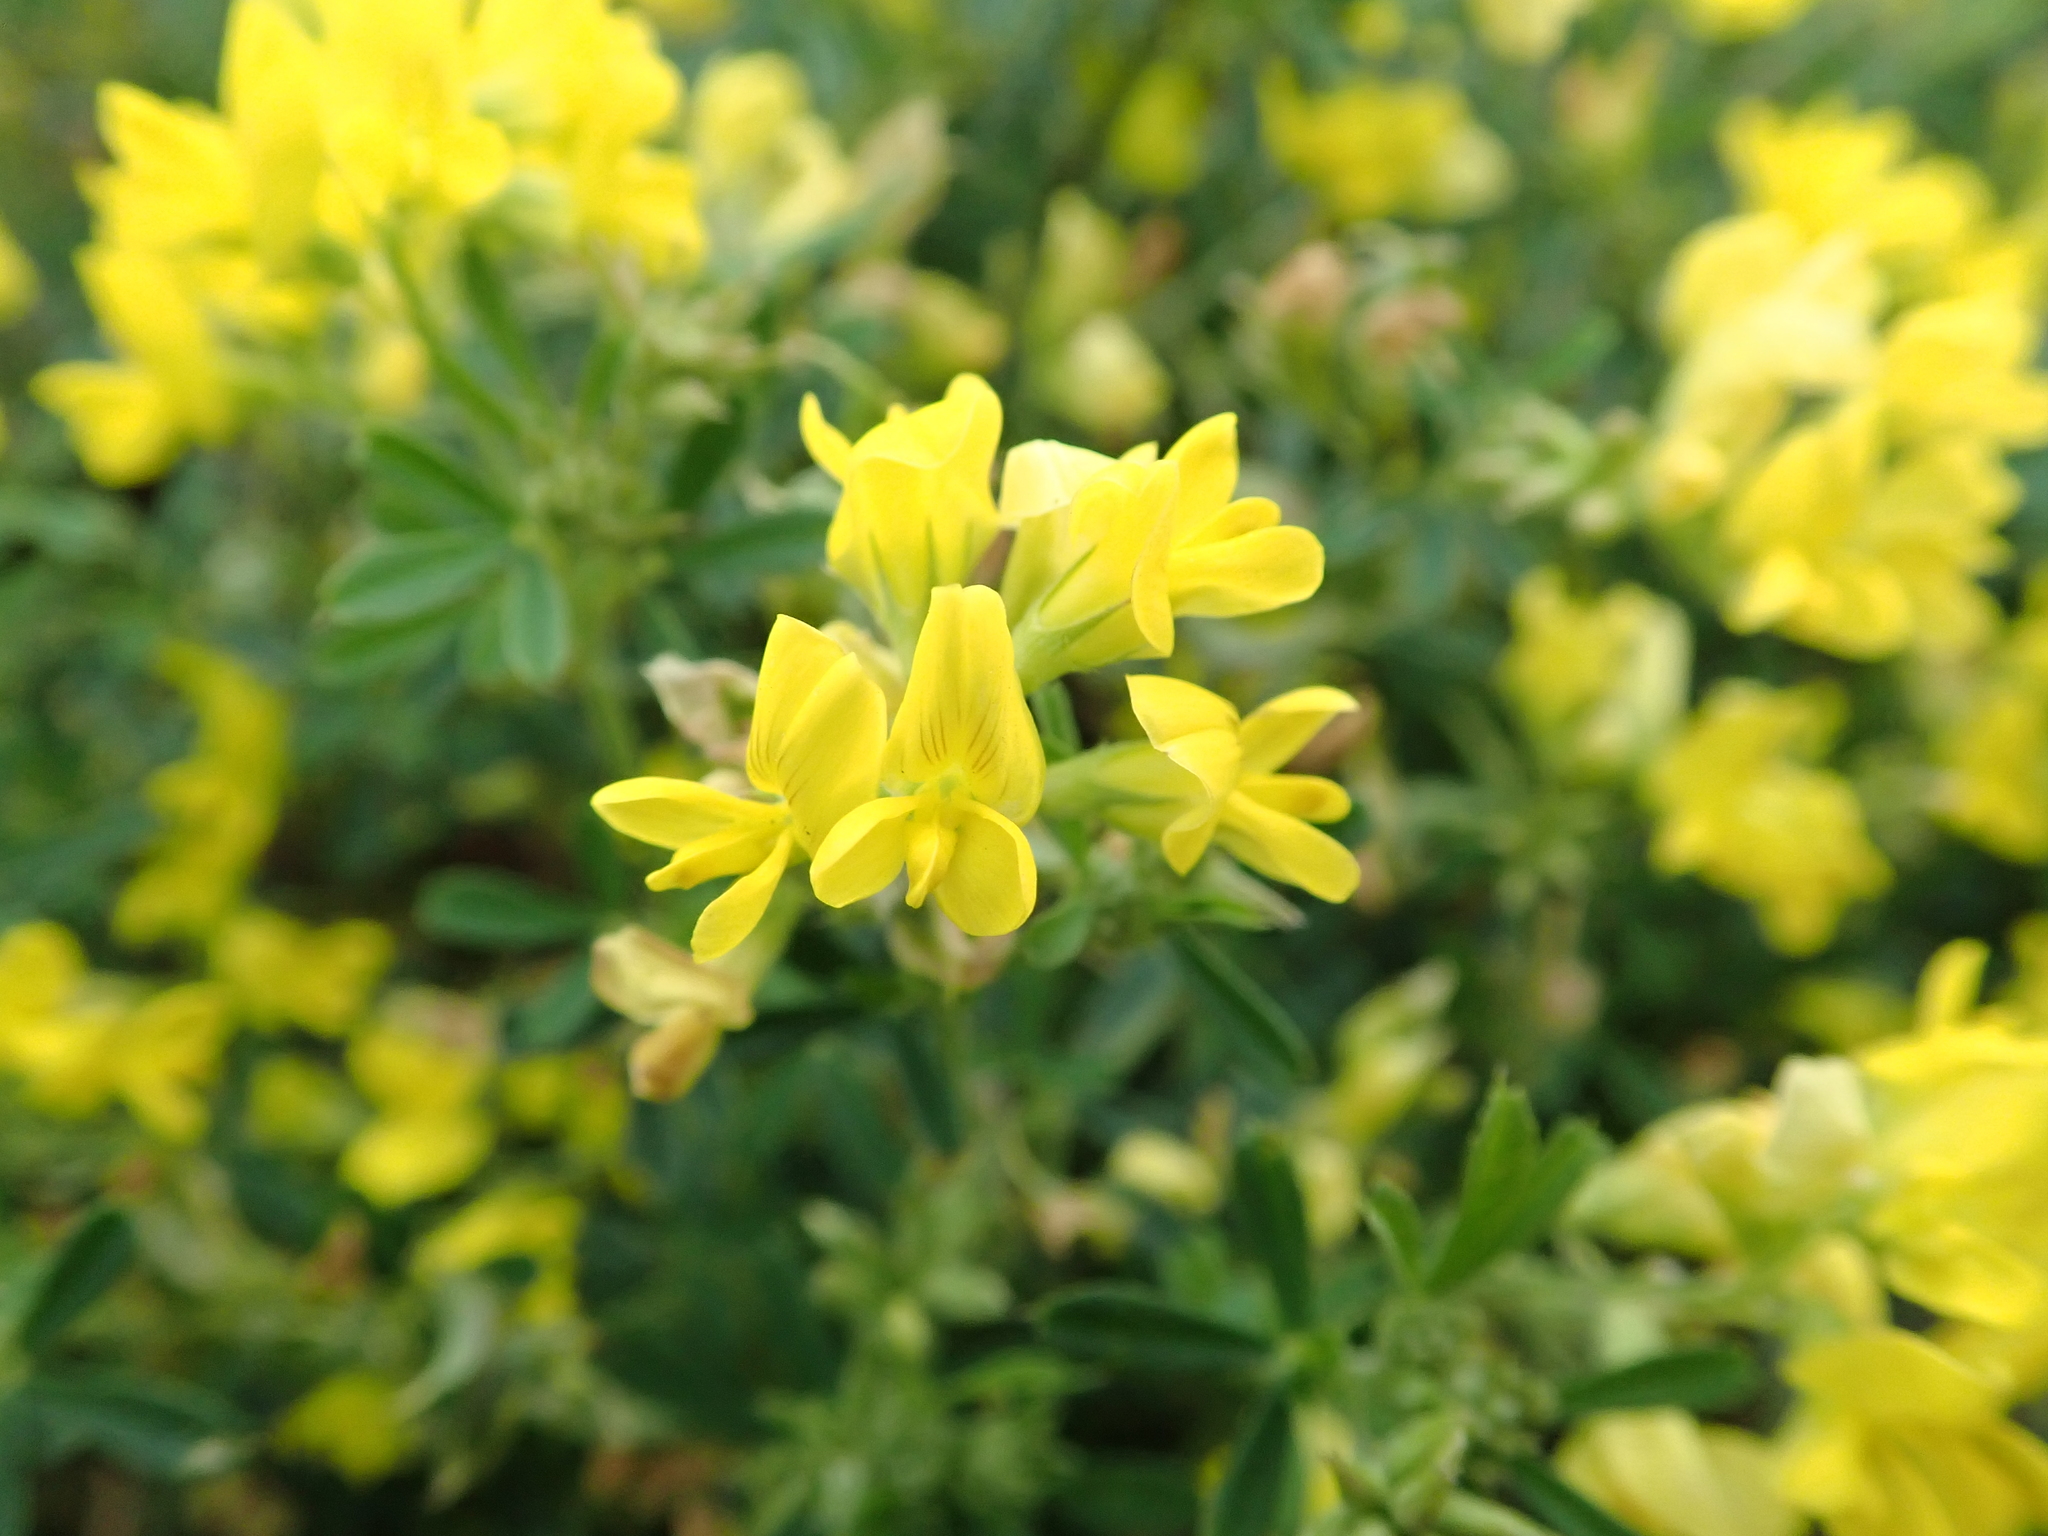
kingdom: Plantae
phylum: Tracheophyta
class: Magnoliopsida
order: Fabales
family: Fabaceae
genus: Medicago
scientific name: Medicago falcata
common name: Sickle medick
